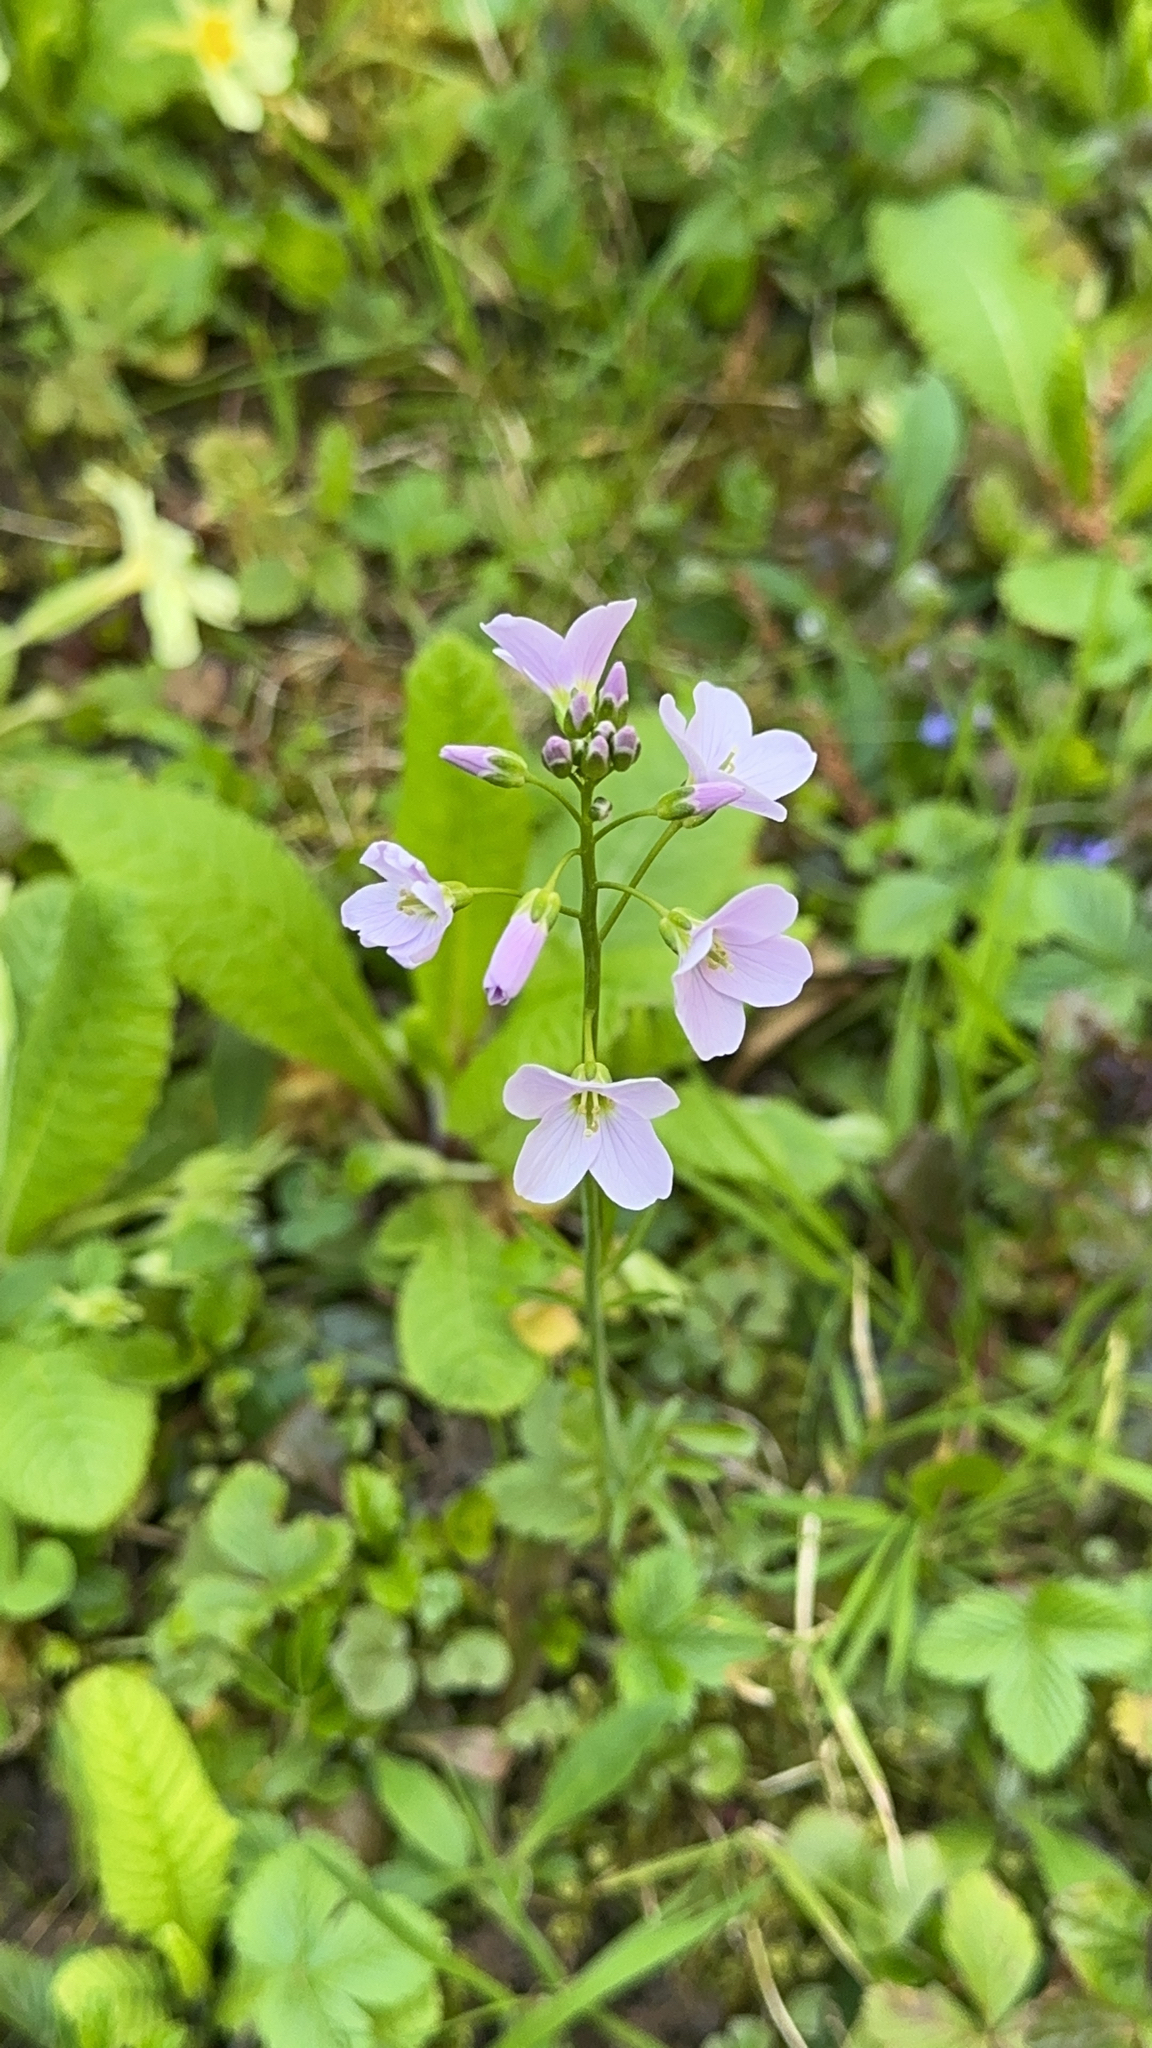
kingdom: Plantae
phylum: Tracheophyta
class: Magnoliopsida
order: Brassicales
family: Brassicaceae
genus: Cardamine
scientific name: Cardamine pratensis
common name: Cuckoo flower
